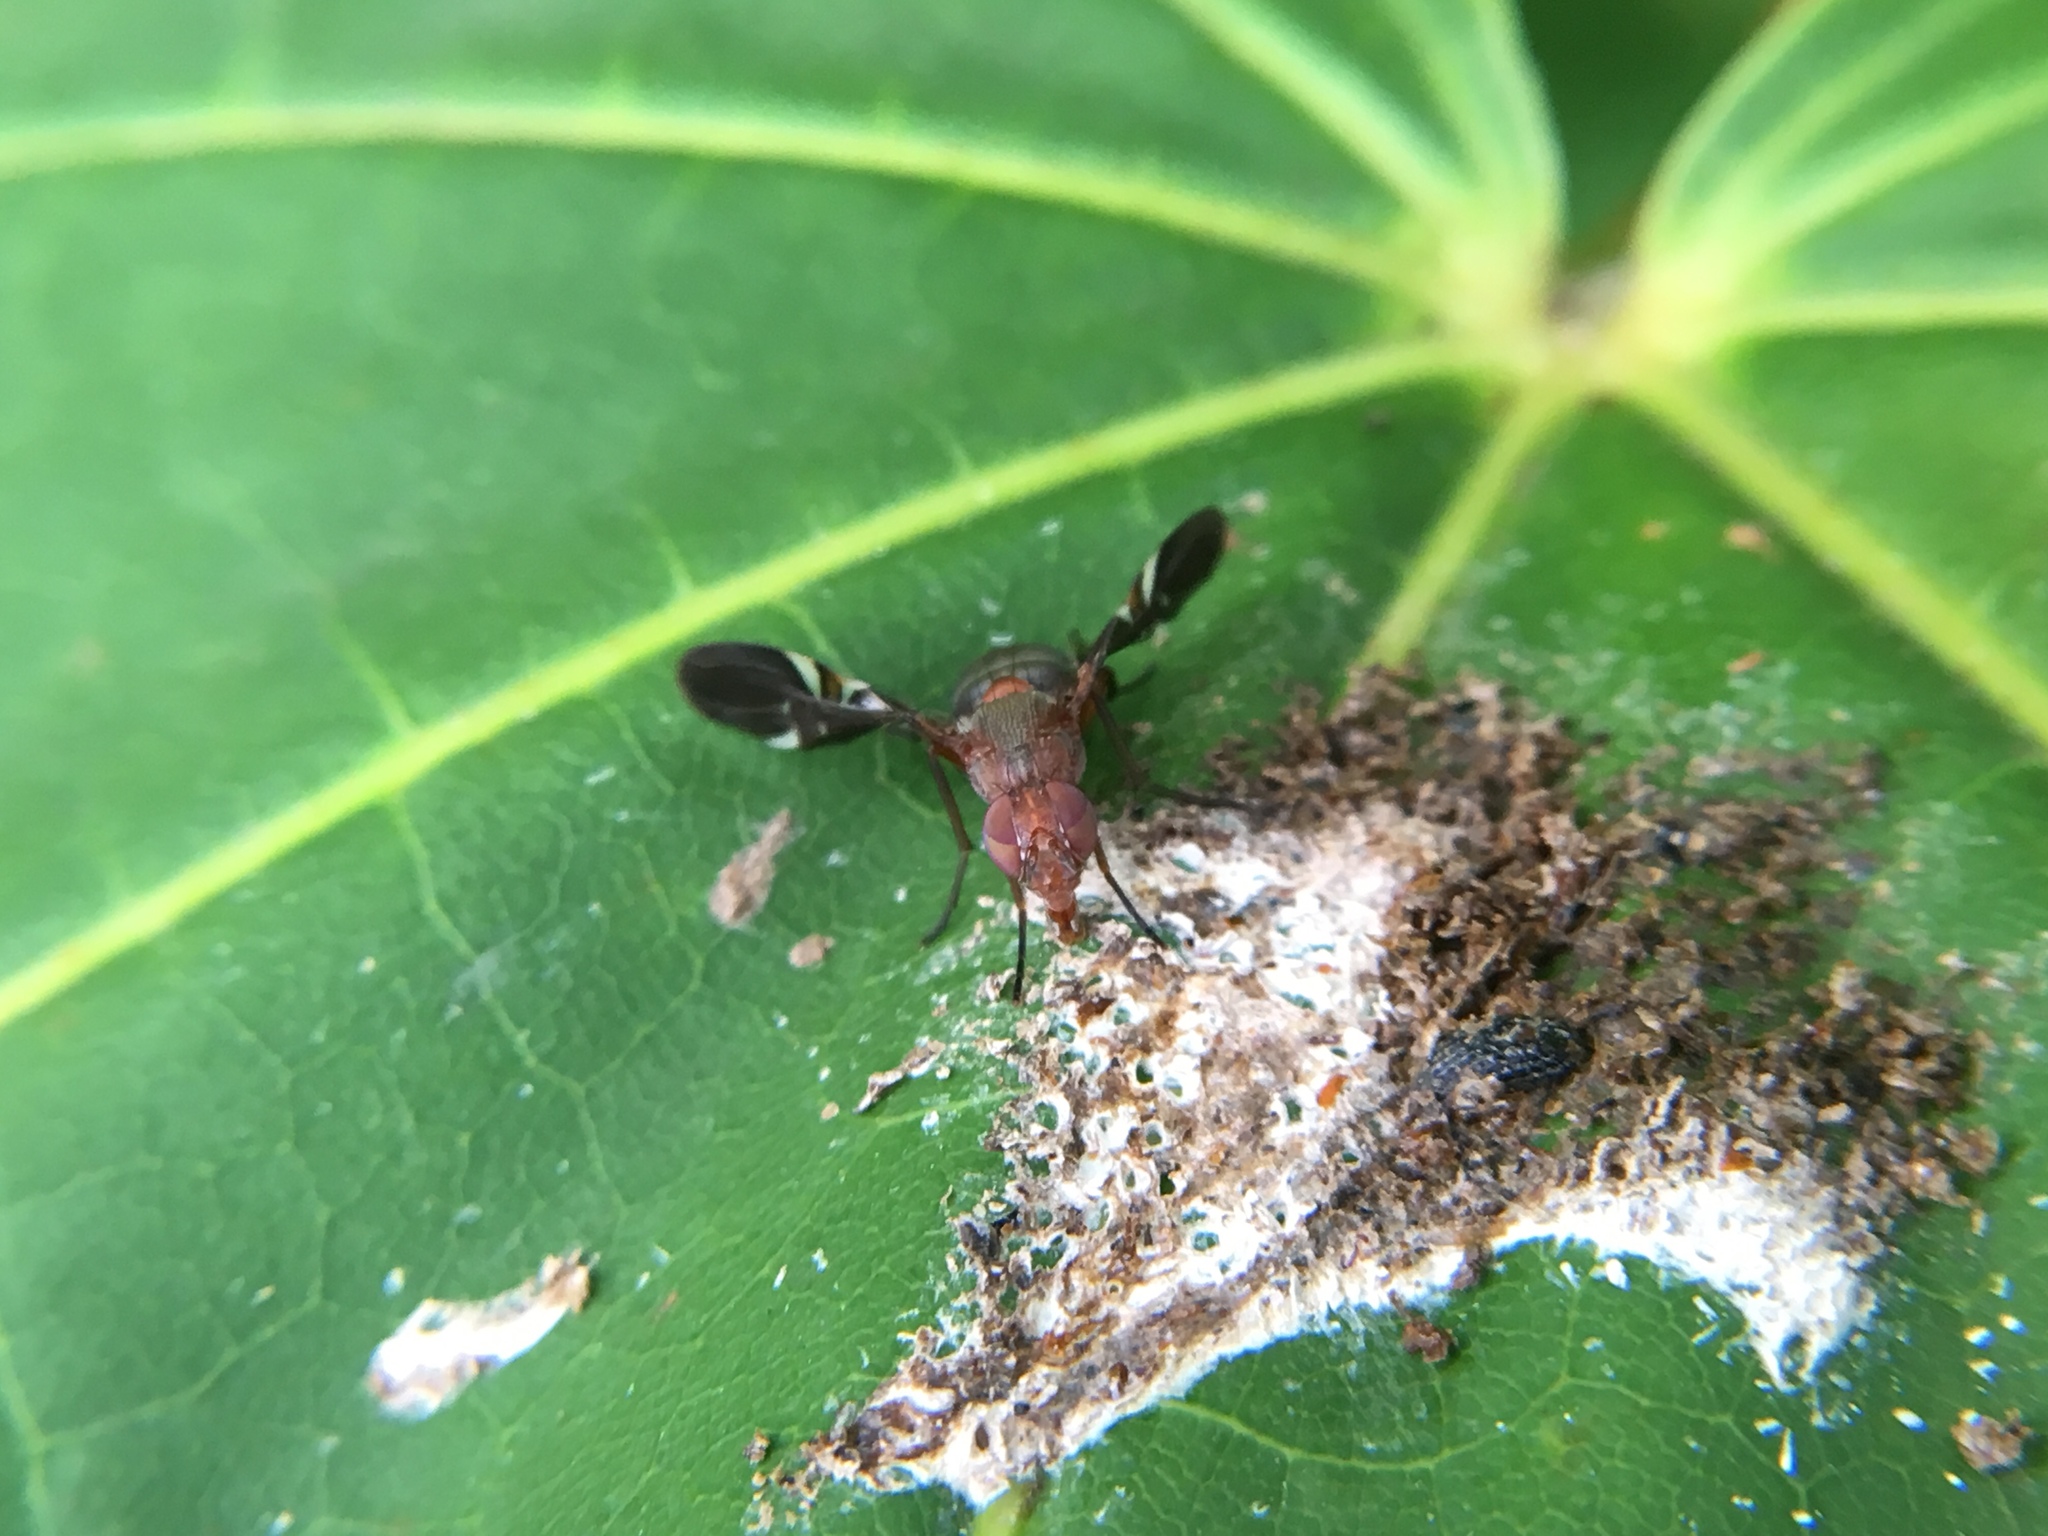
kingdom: Animalia
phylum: Arthropoda
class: Insecta
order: Diptera
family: Ulidiidae
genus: Delphinia
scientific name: Delphinia picta
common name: Common picture-winged fly
